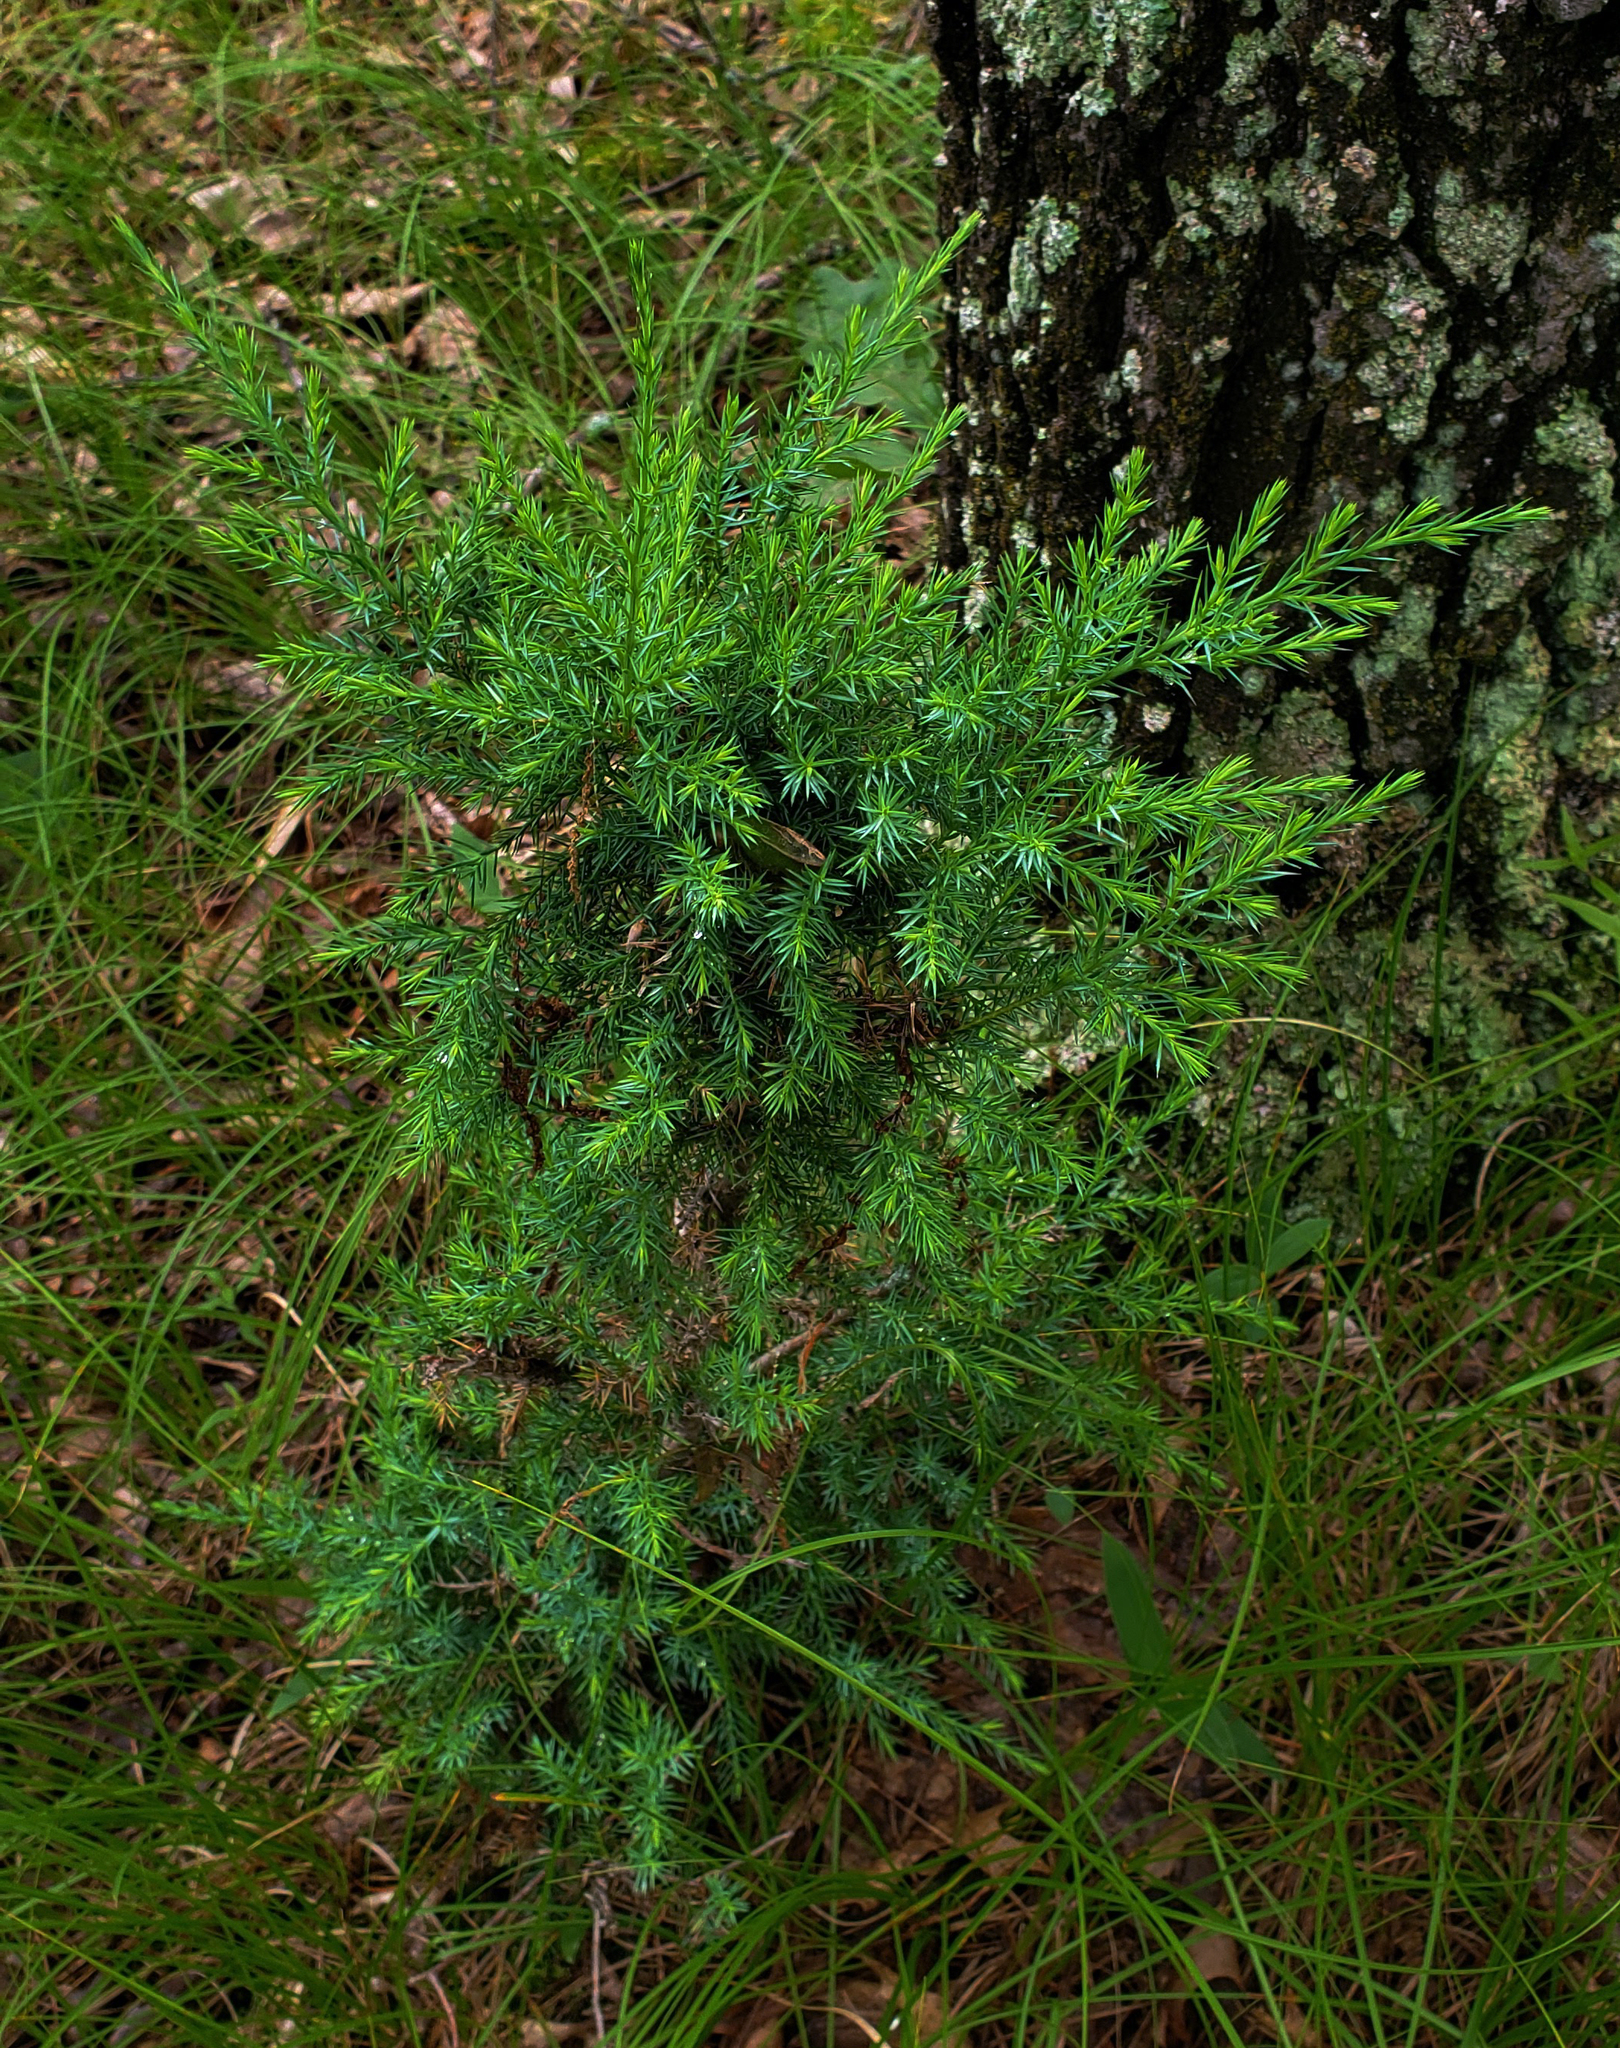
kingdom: Plantae
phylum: Tracheophyta
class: Pinopsida
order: Pinales
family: Cupressaceae
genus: Juniperus
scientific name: Juniperus virginiana
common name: Red juniper
